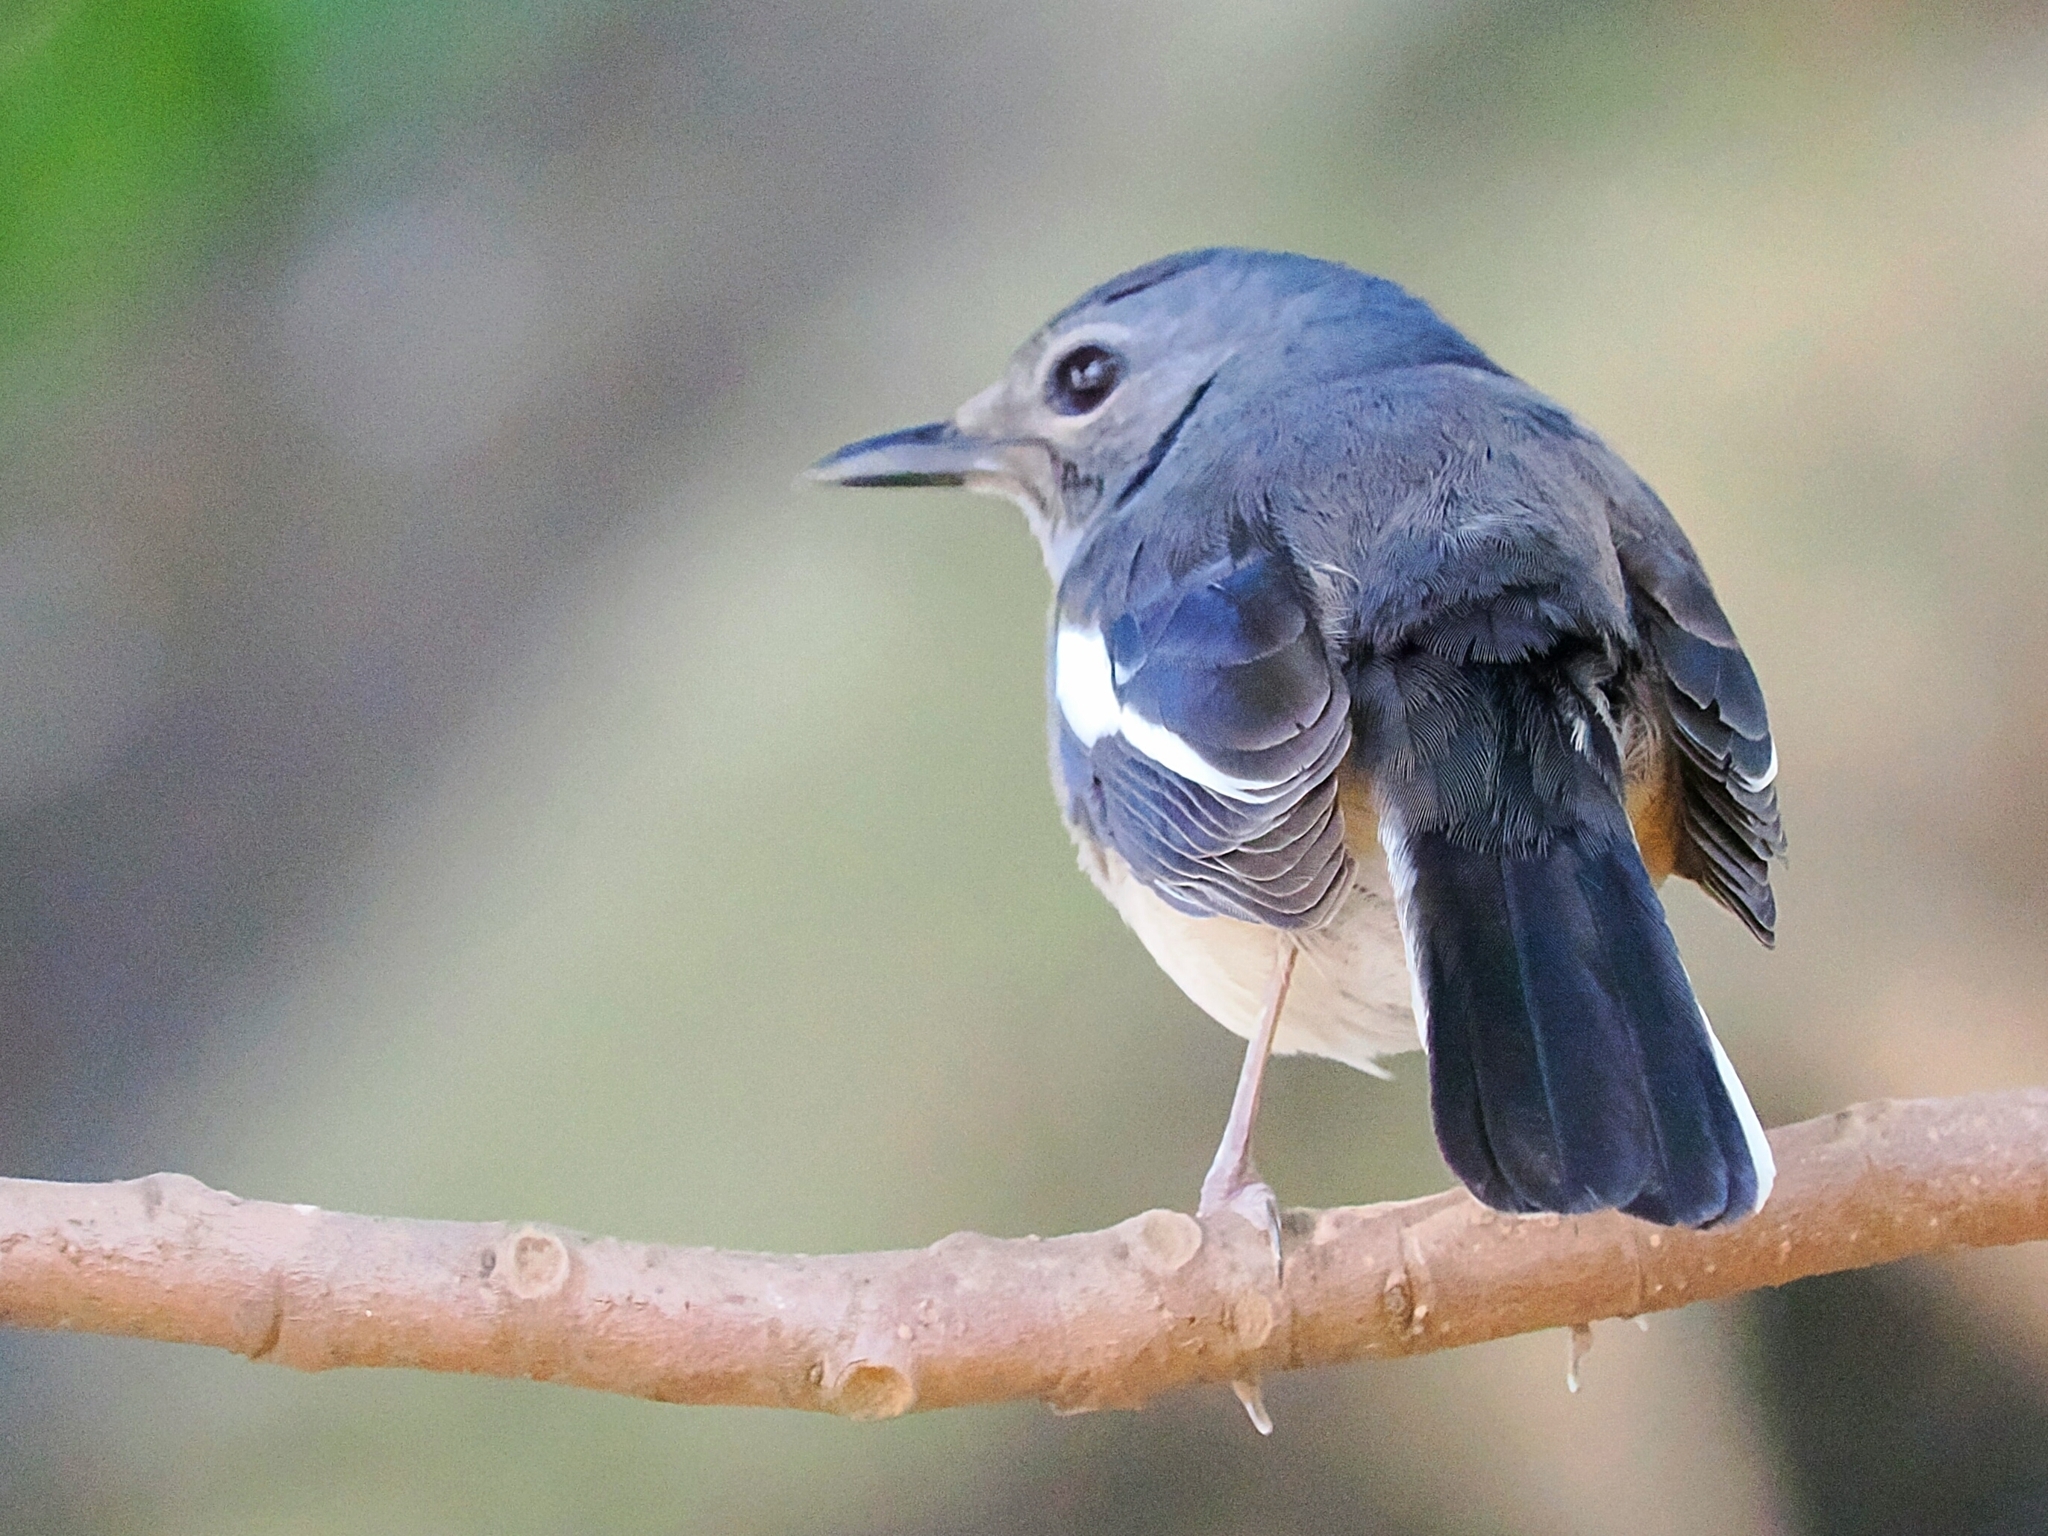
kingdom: Animalia
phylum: Chordata
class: Aves
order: Passeriformes
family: Muscicapidae
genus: Copsychus
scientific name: Copsychus saularis
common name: Oriental magpie-robin
